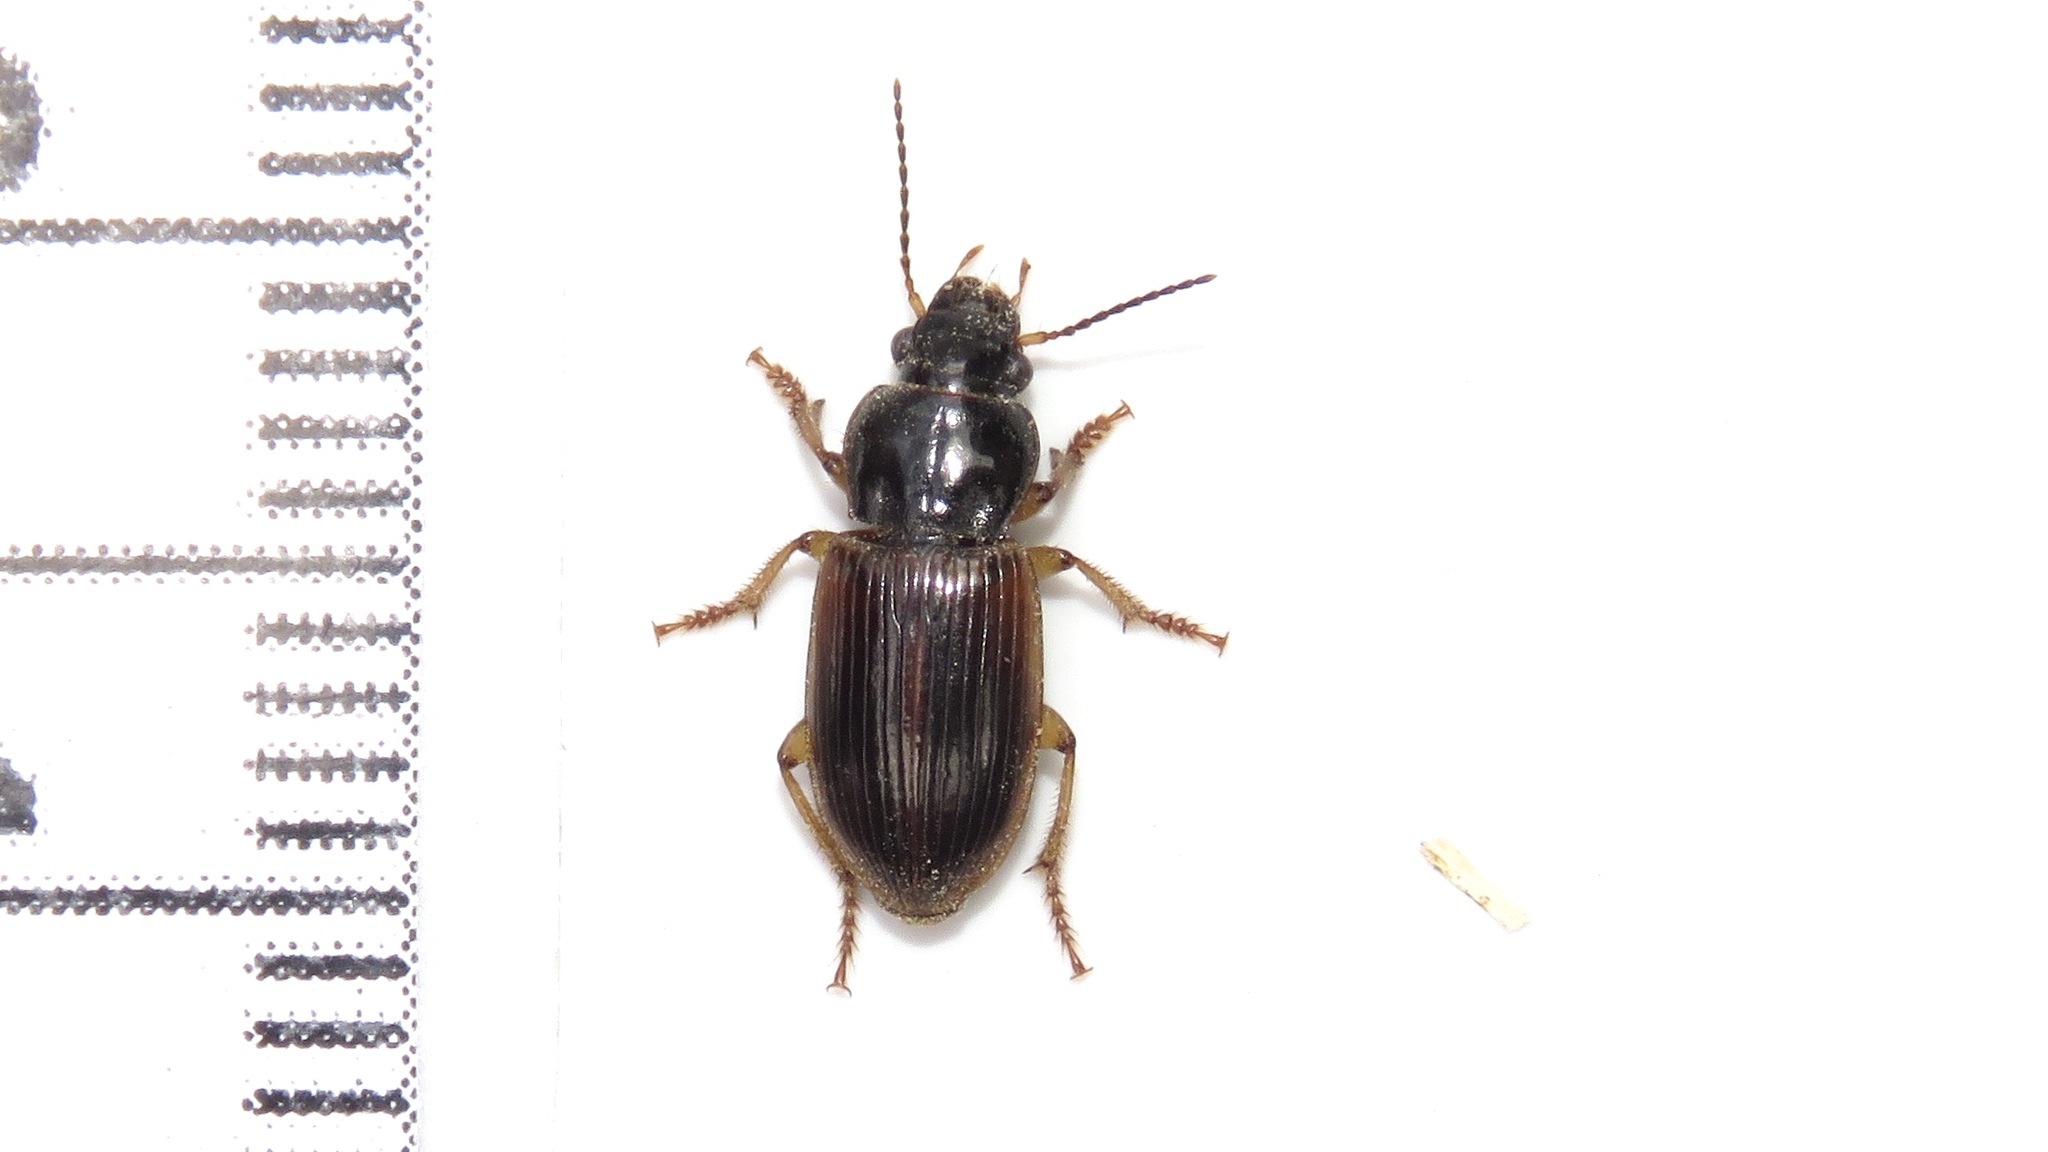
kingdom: Animalia
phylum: Arthropoda
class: Insecta
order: Coleoptera
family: Carabidae
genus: Anisodactylus
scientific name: Anisodactylus sanctaecrucis
